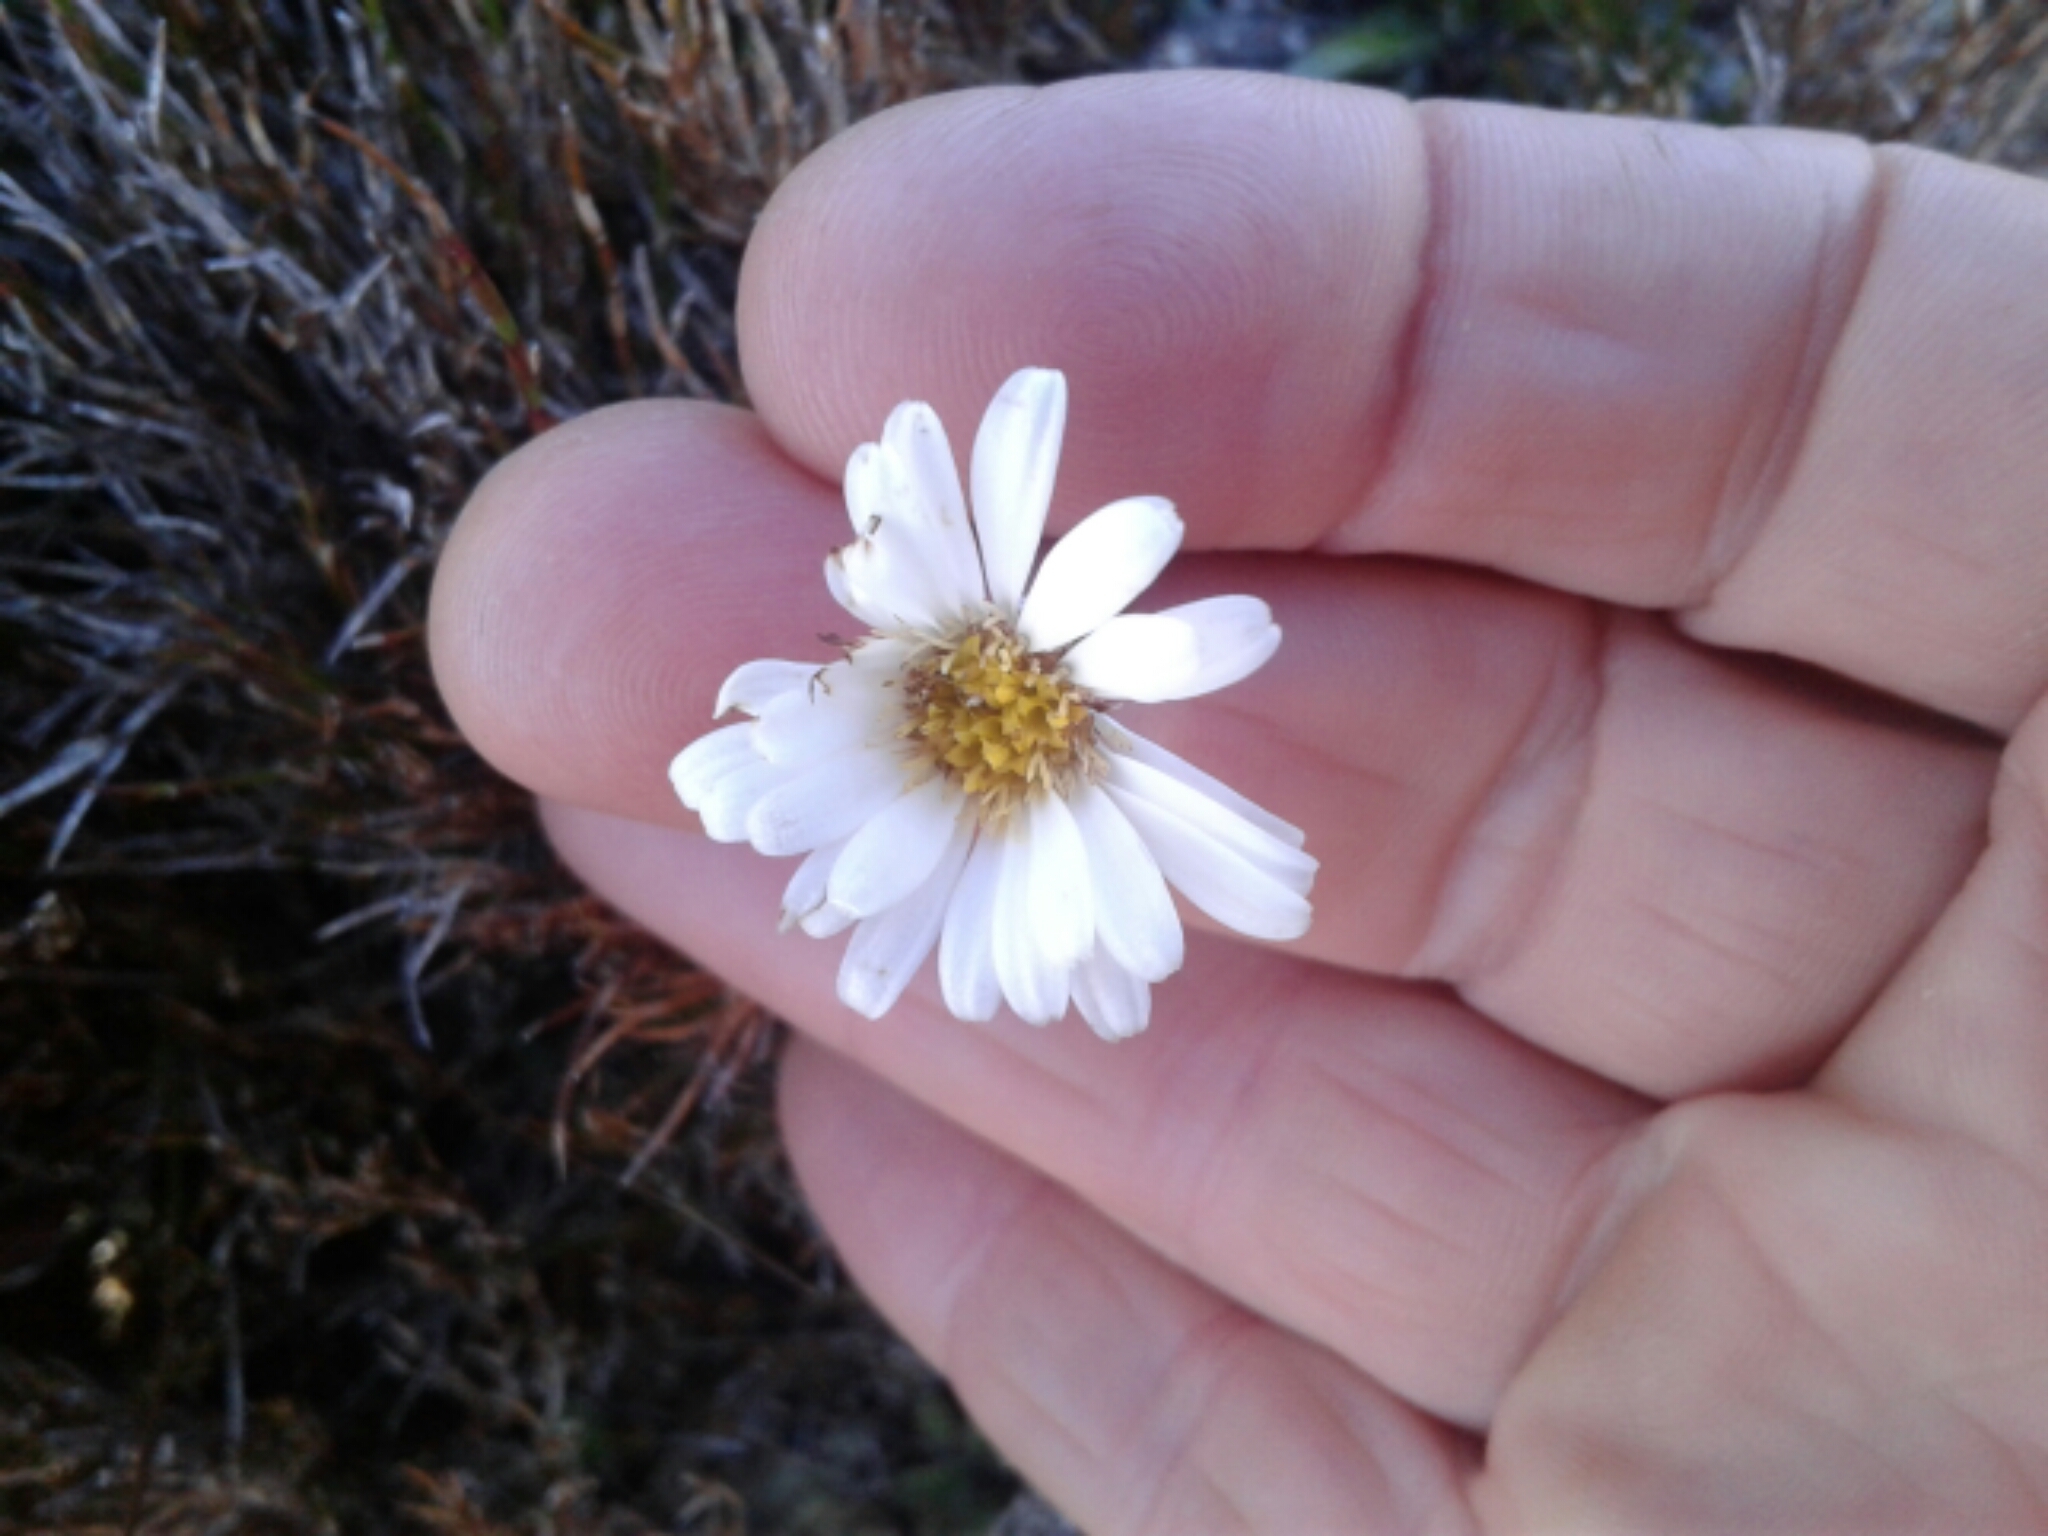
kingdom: Plantae
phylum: Tracheophyta
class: Magnoliopsida
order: Asterales
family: Asteraceae
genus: Celmisia
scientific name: Celmisia dubia
